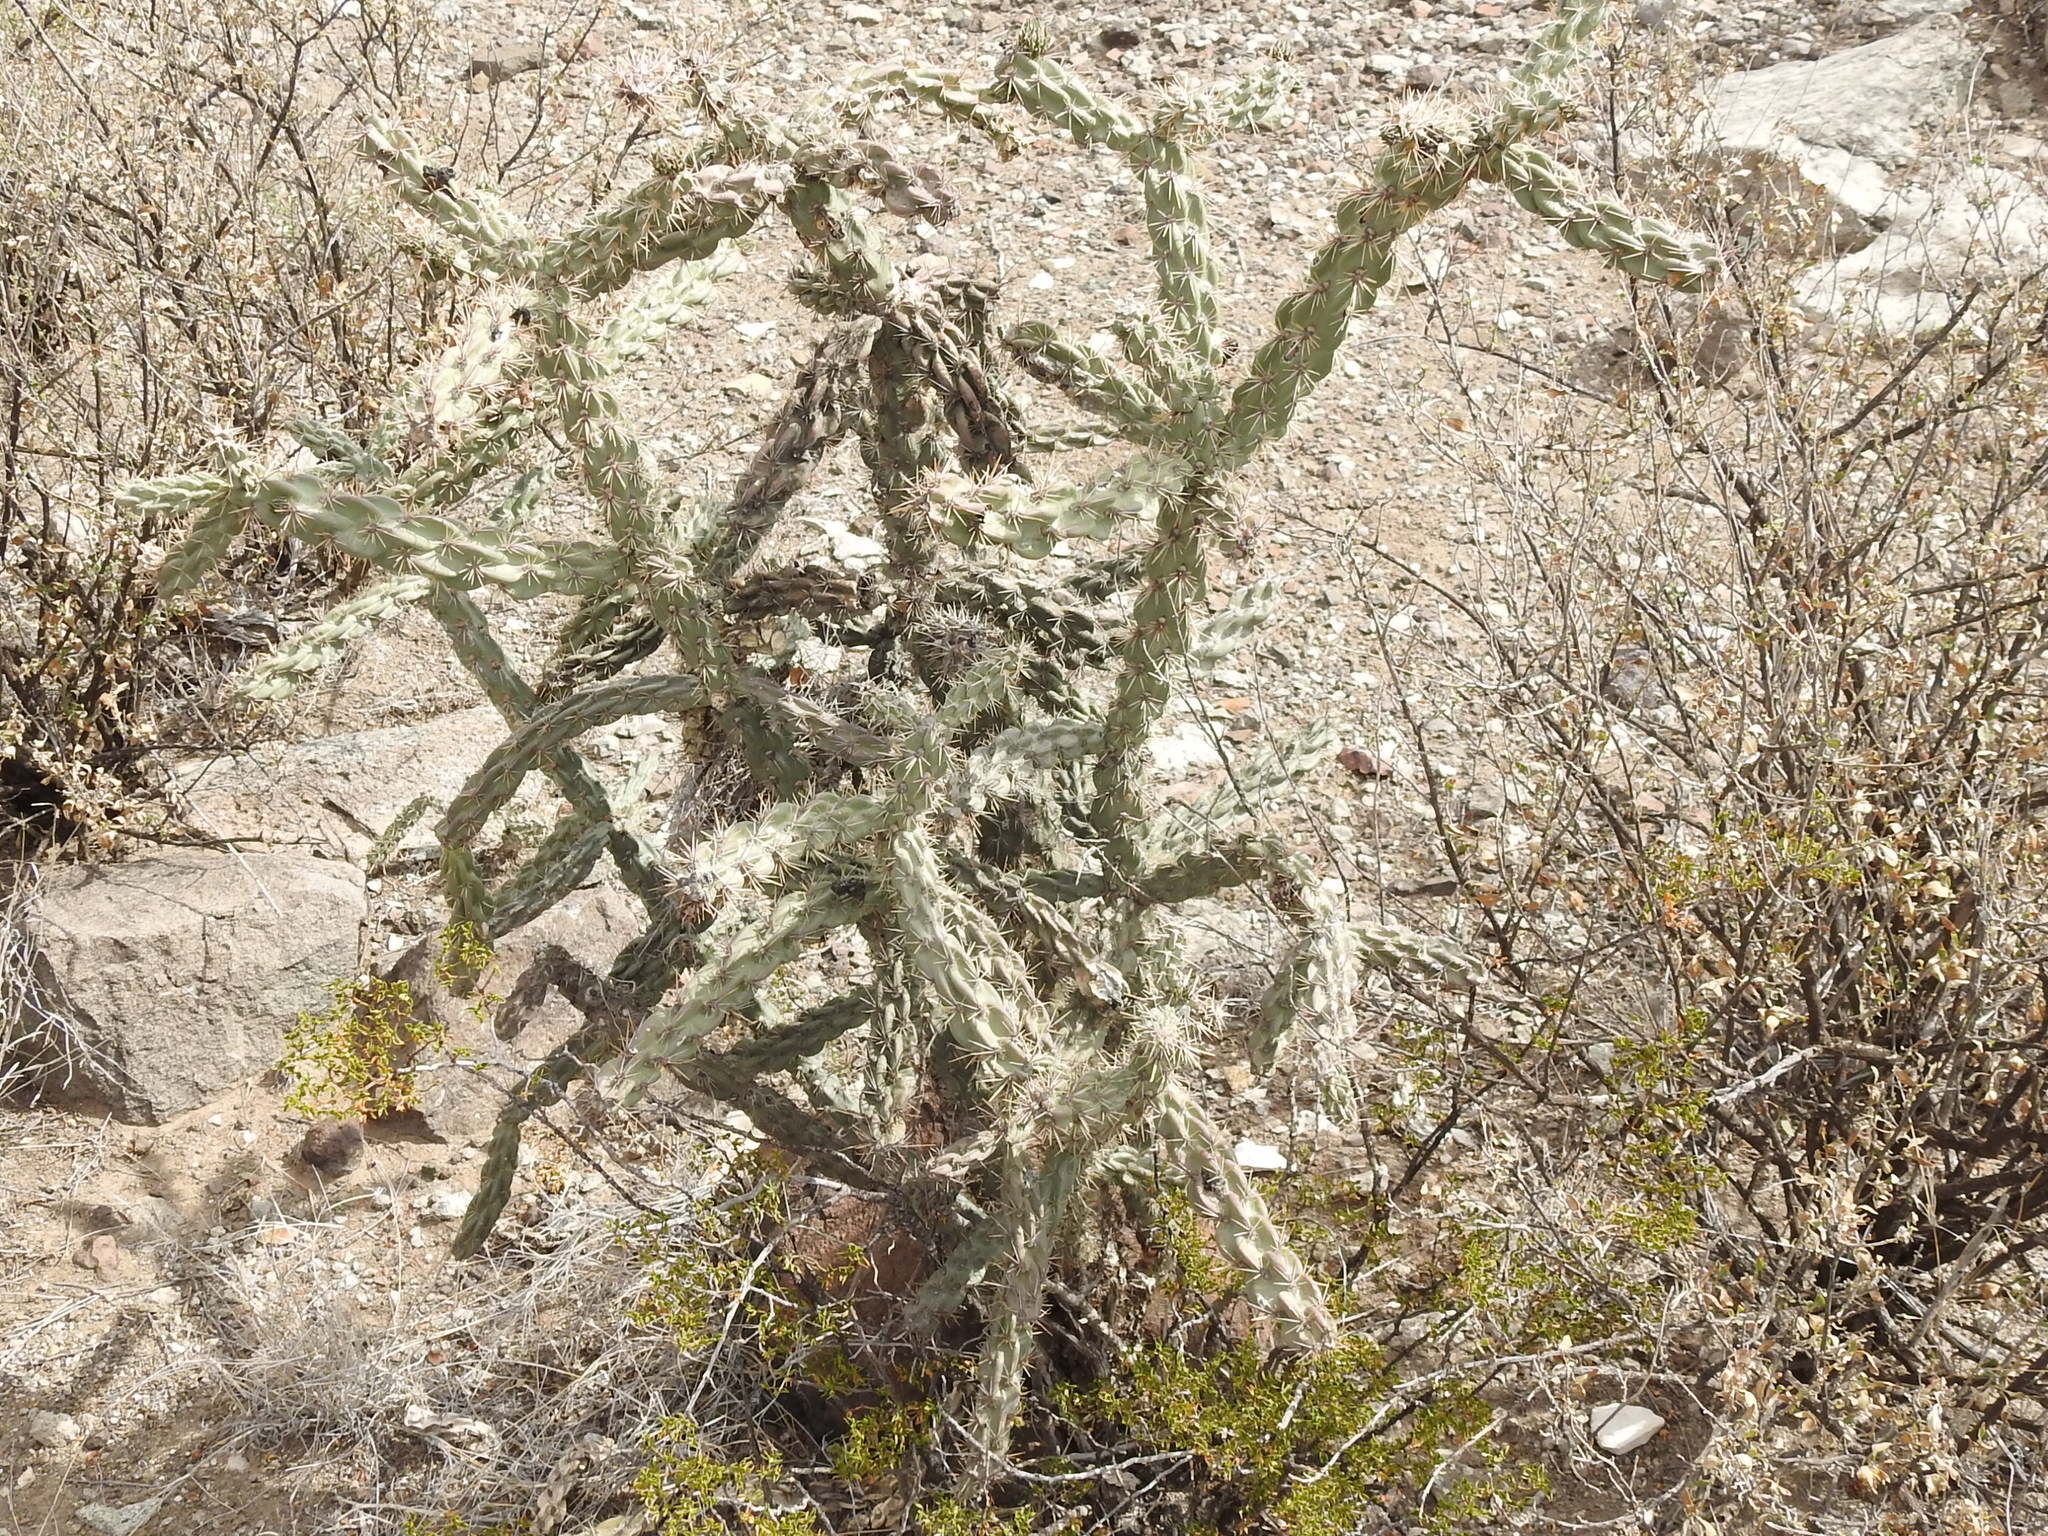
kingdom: Plantae
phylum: Tracheophyta
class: Magnoliopsida
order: Caryophyllales
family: Cactaceae
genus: Cylindropuntia
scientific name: Cylindropuntia imbricata
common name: Candelabrum cactus
